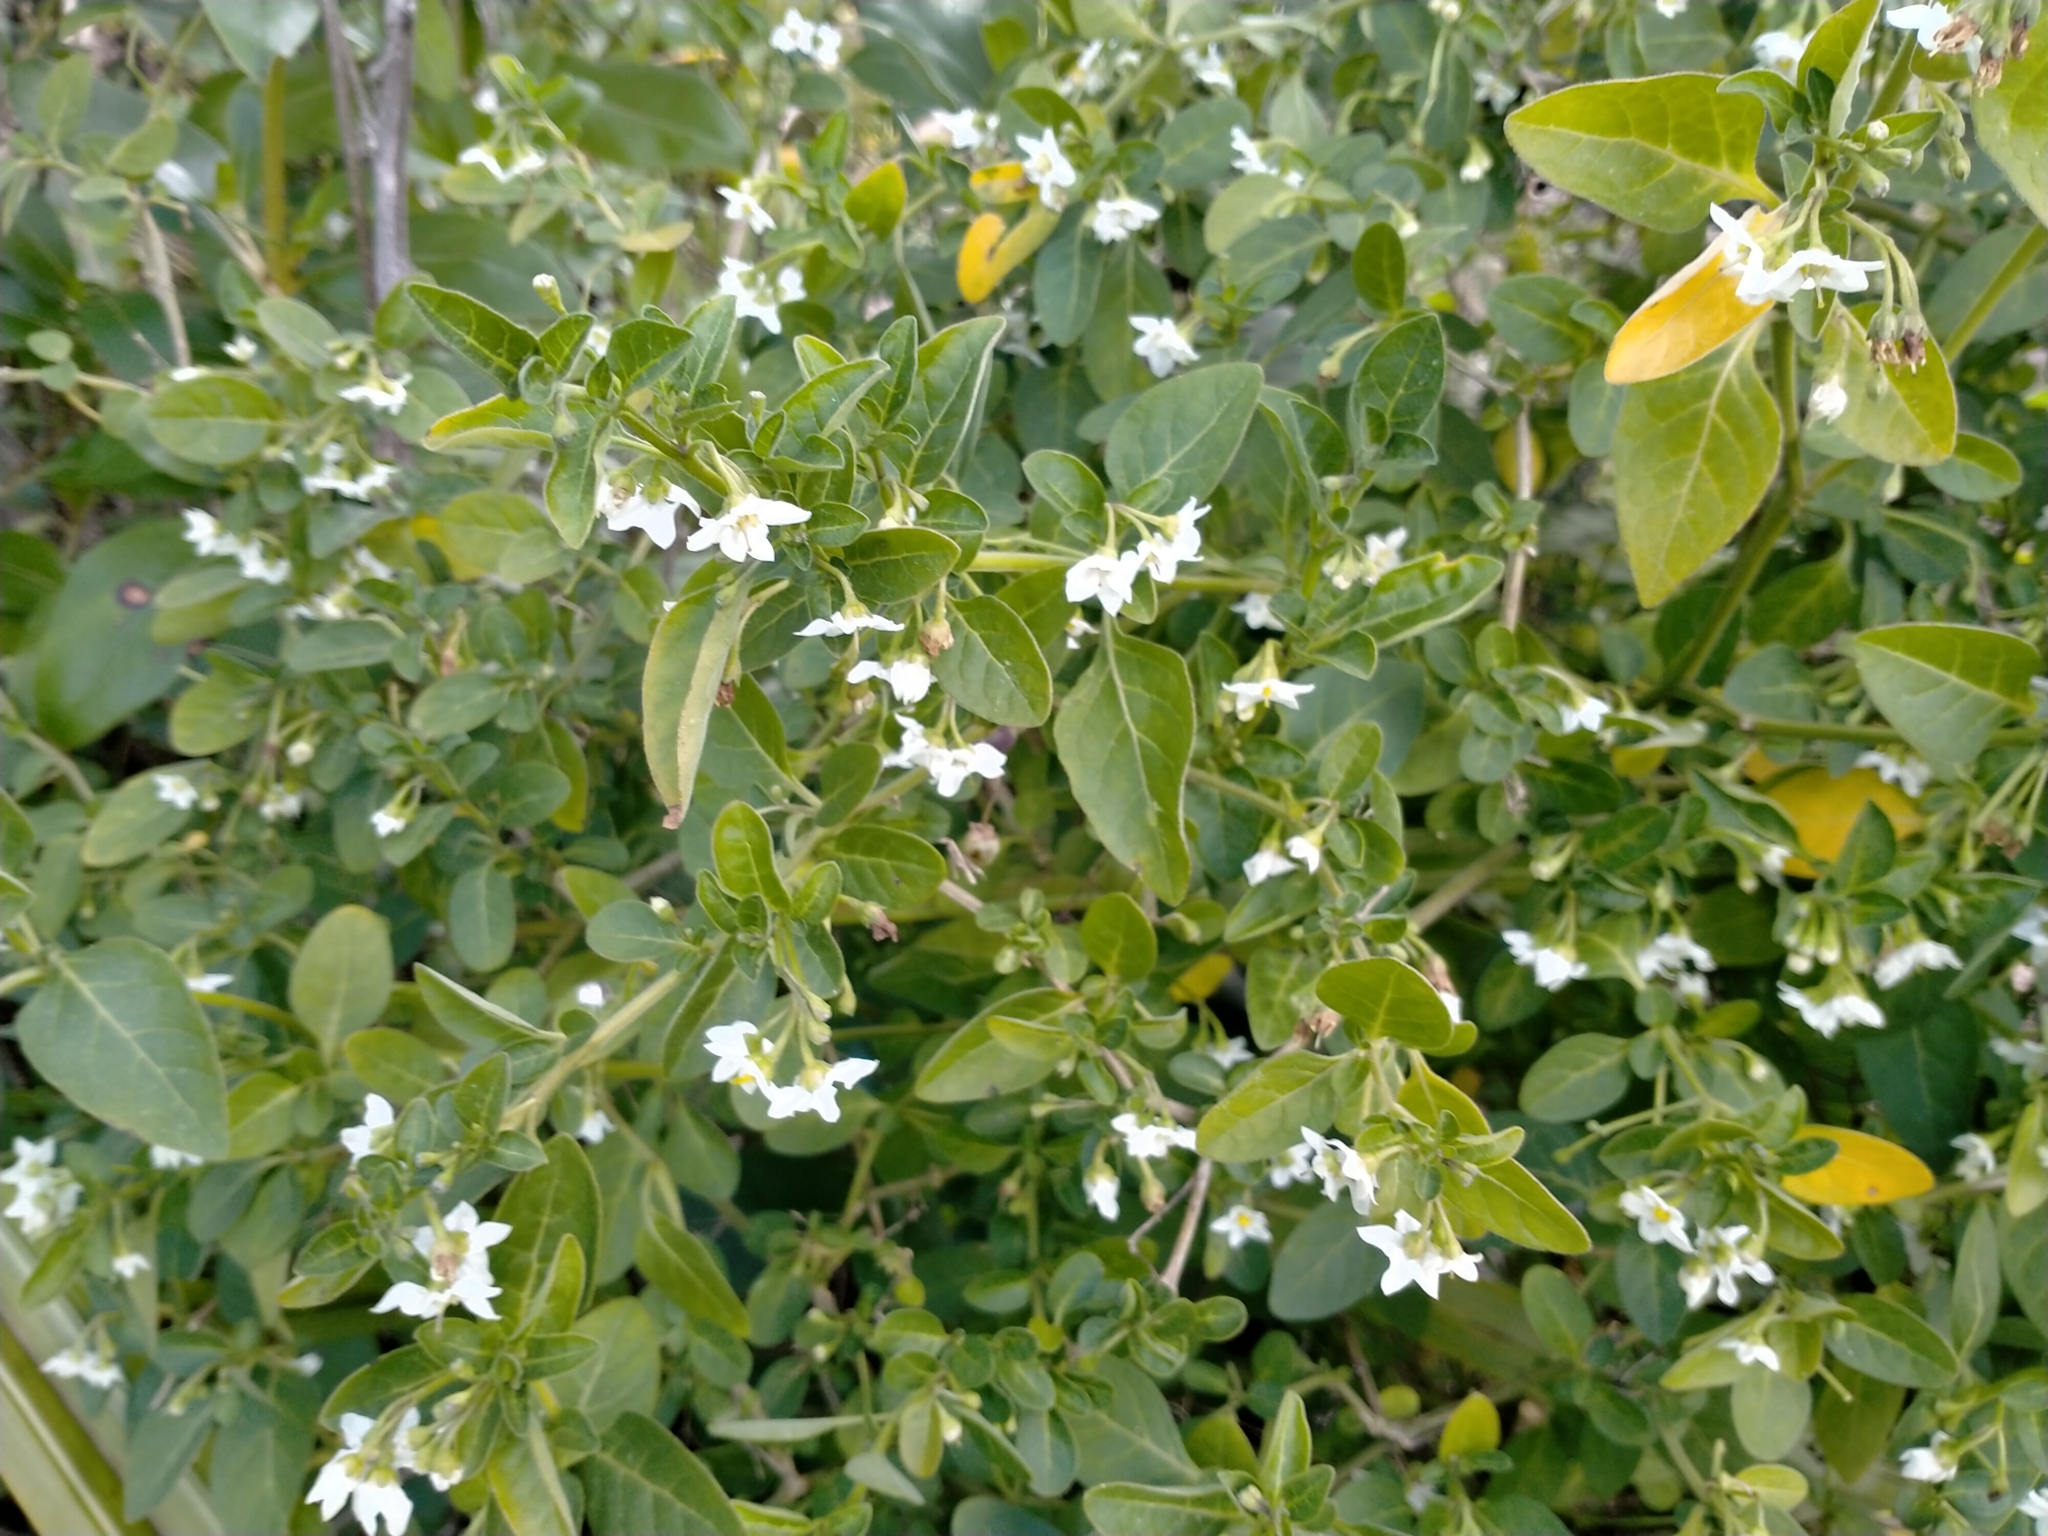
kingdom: Plantae
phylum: Tracheophyta
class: Magnoliopsida
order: Solanales
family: Solanaceae
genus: Solanum
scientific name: Solanum chenopodioides
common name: Tall nightshade
